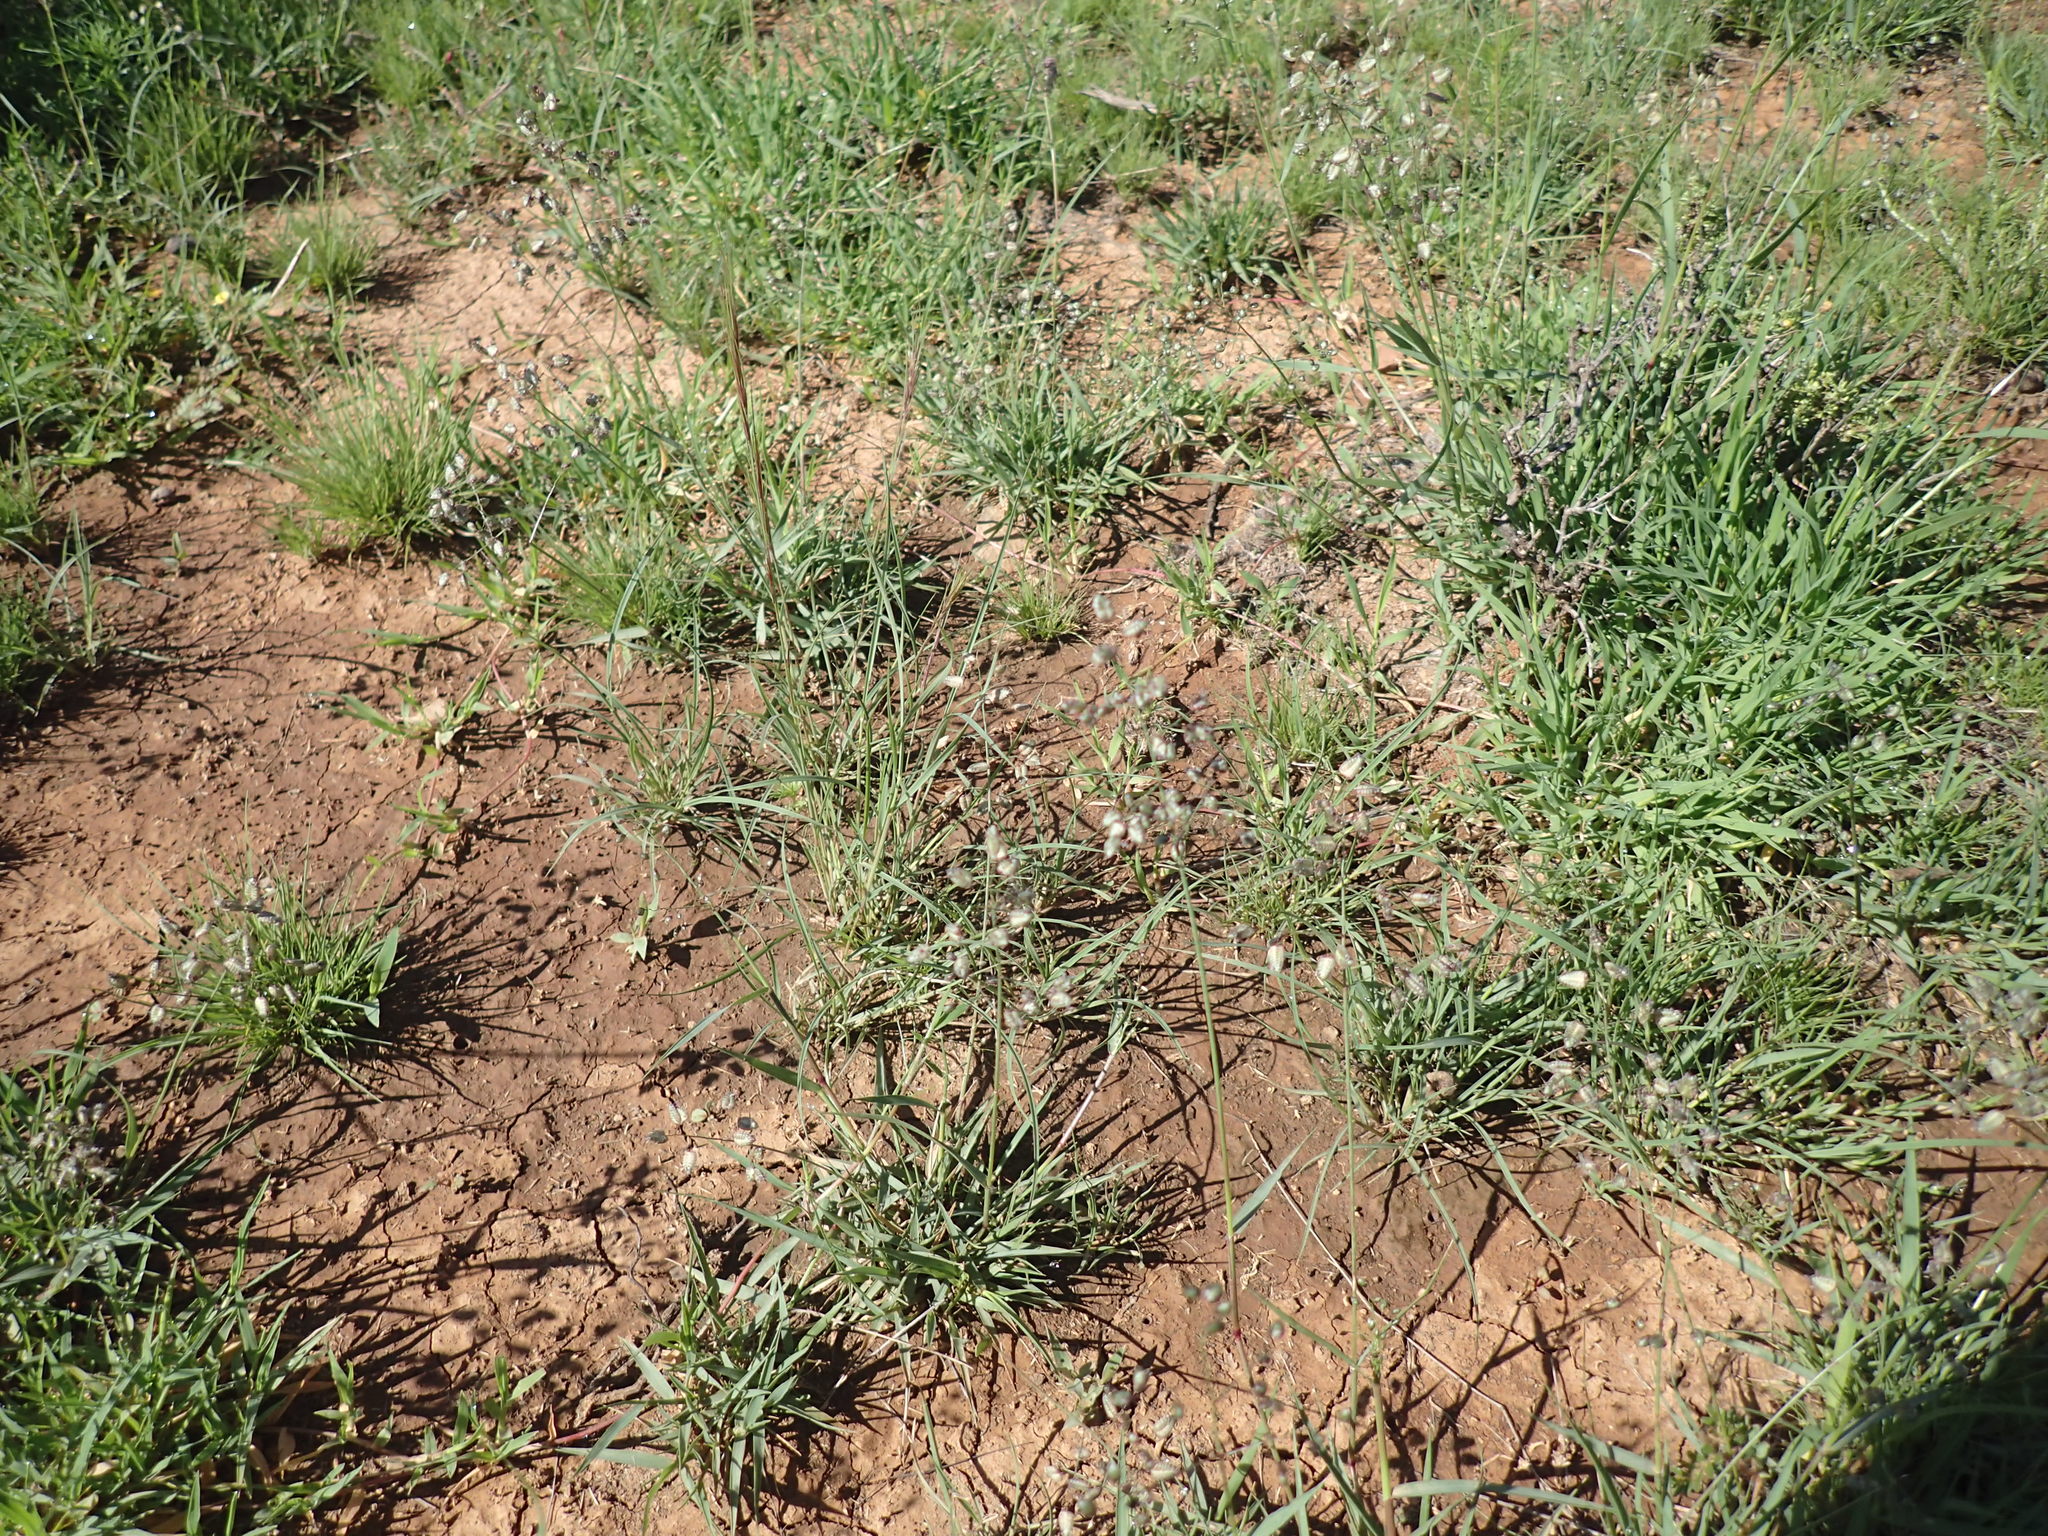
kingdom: Plantae
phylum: Tracheophyta
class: Liliopsida
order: Poales
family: Poaceae
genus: Eragrostis
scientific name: Eragrostis obtusa
